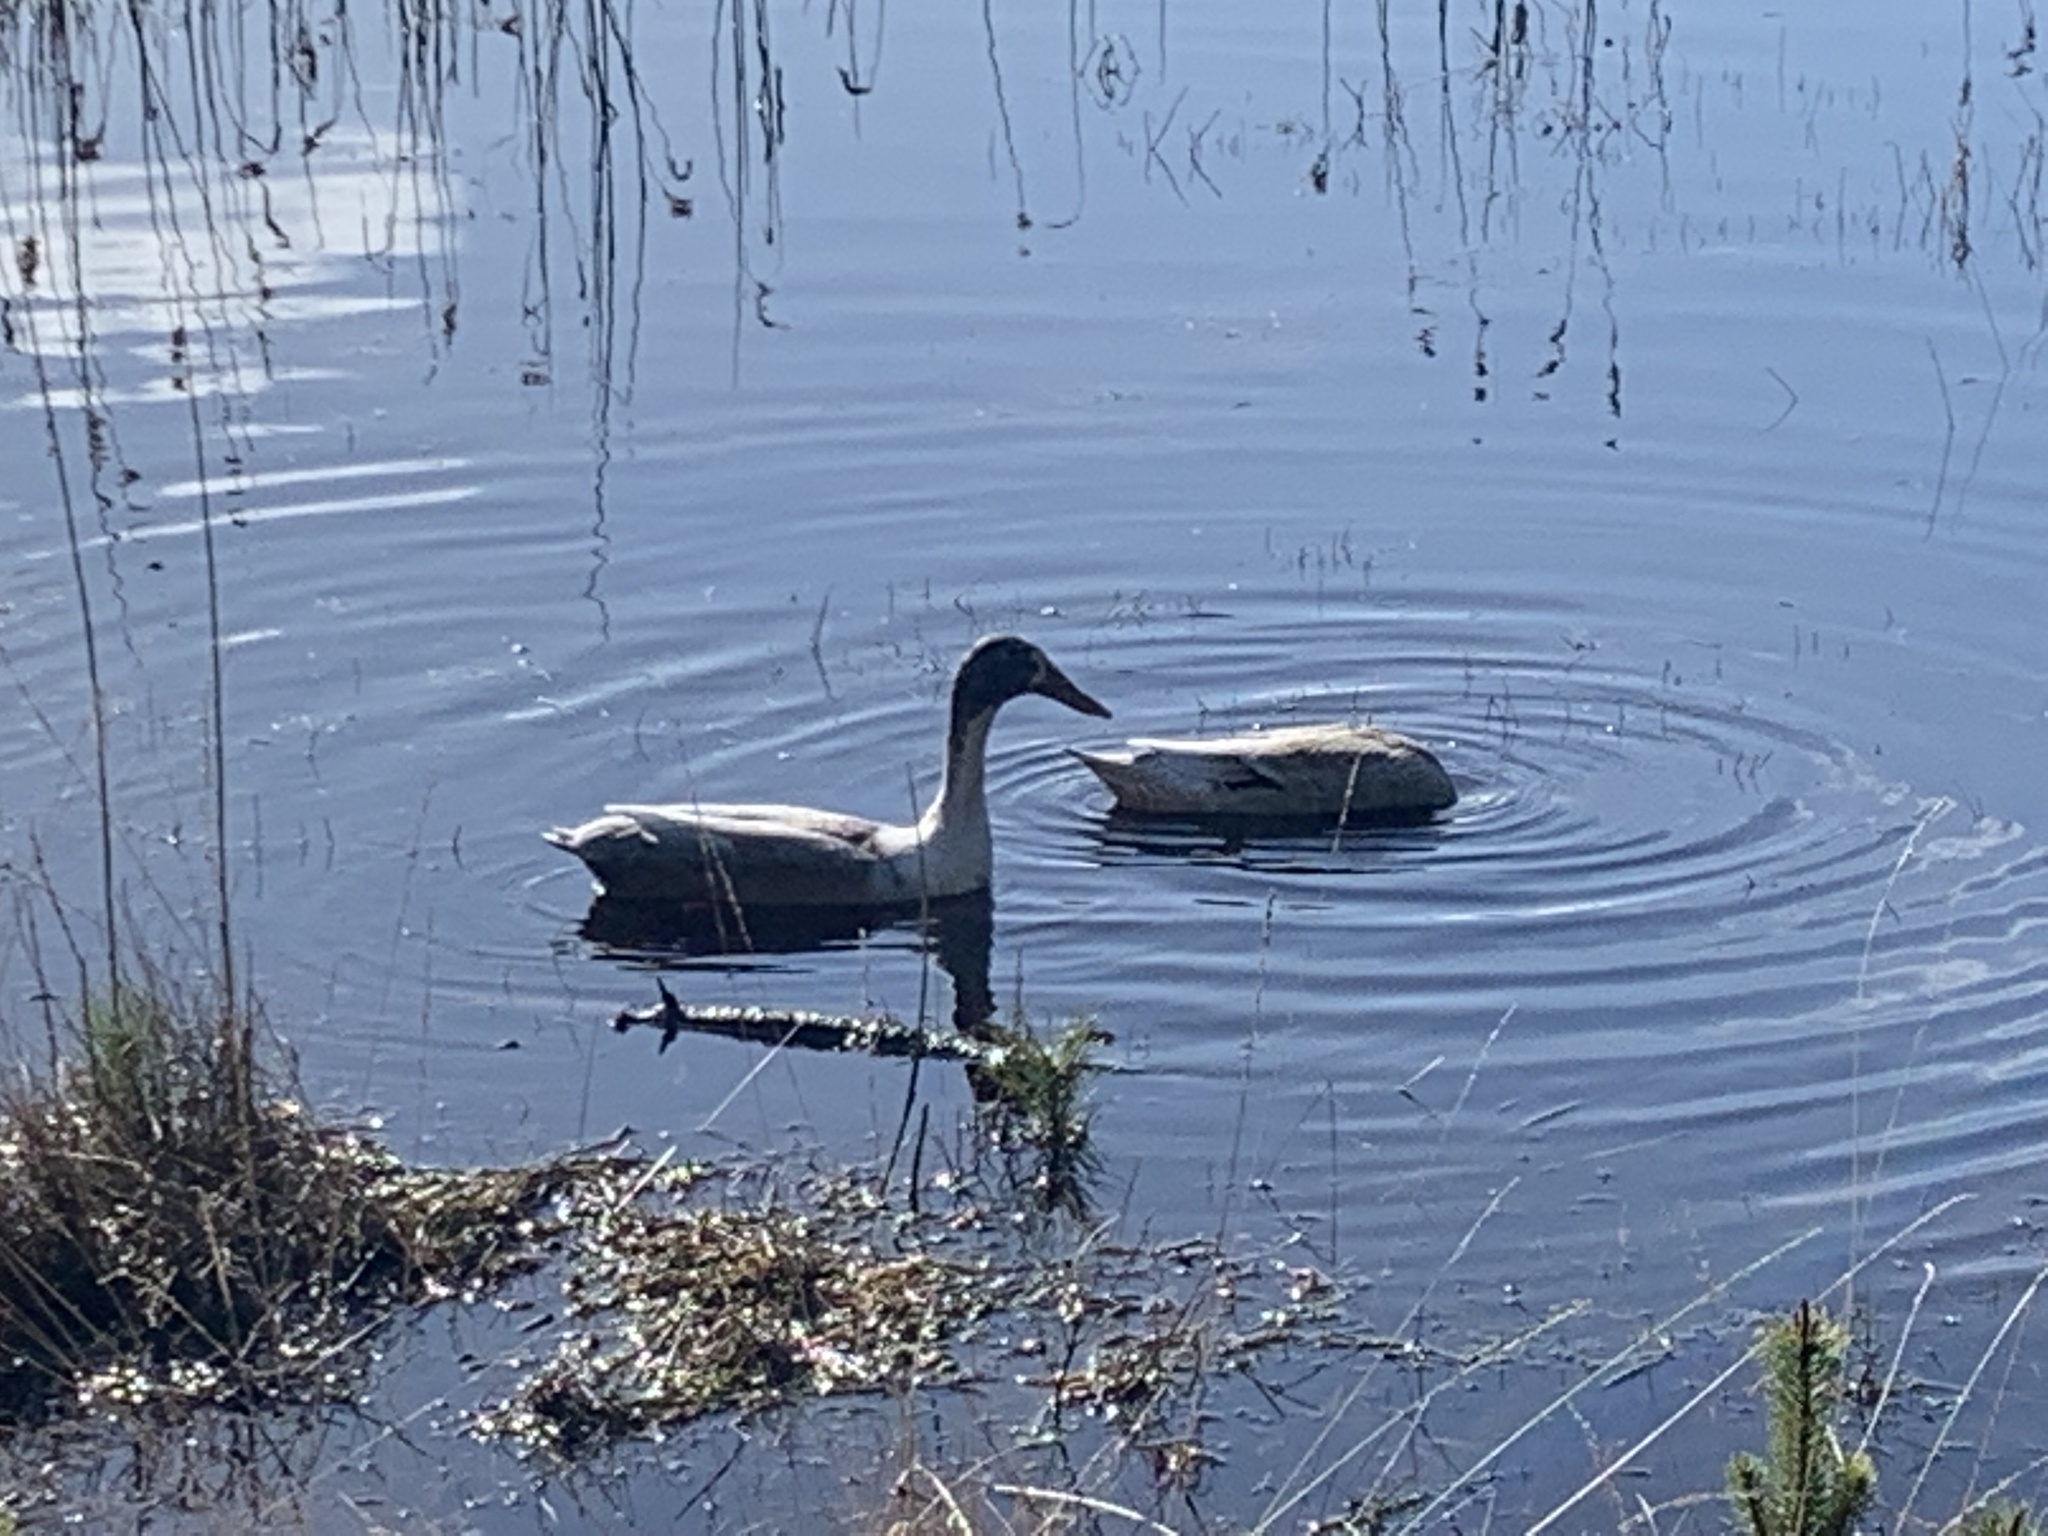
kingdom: Animalia
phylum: Chordata
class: Aves
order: Anseriformes
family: Anatidae
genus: Anas
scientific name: Anas platyrhynchos
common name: Mallard
